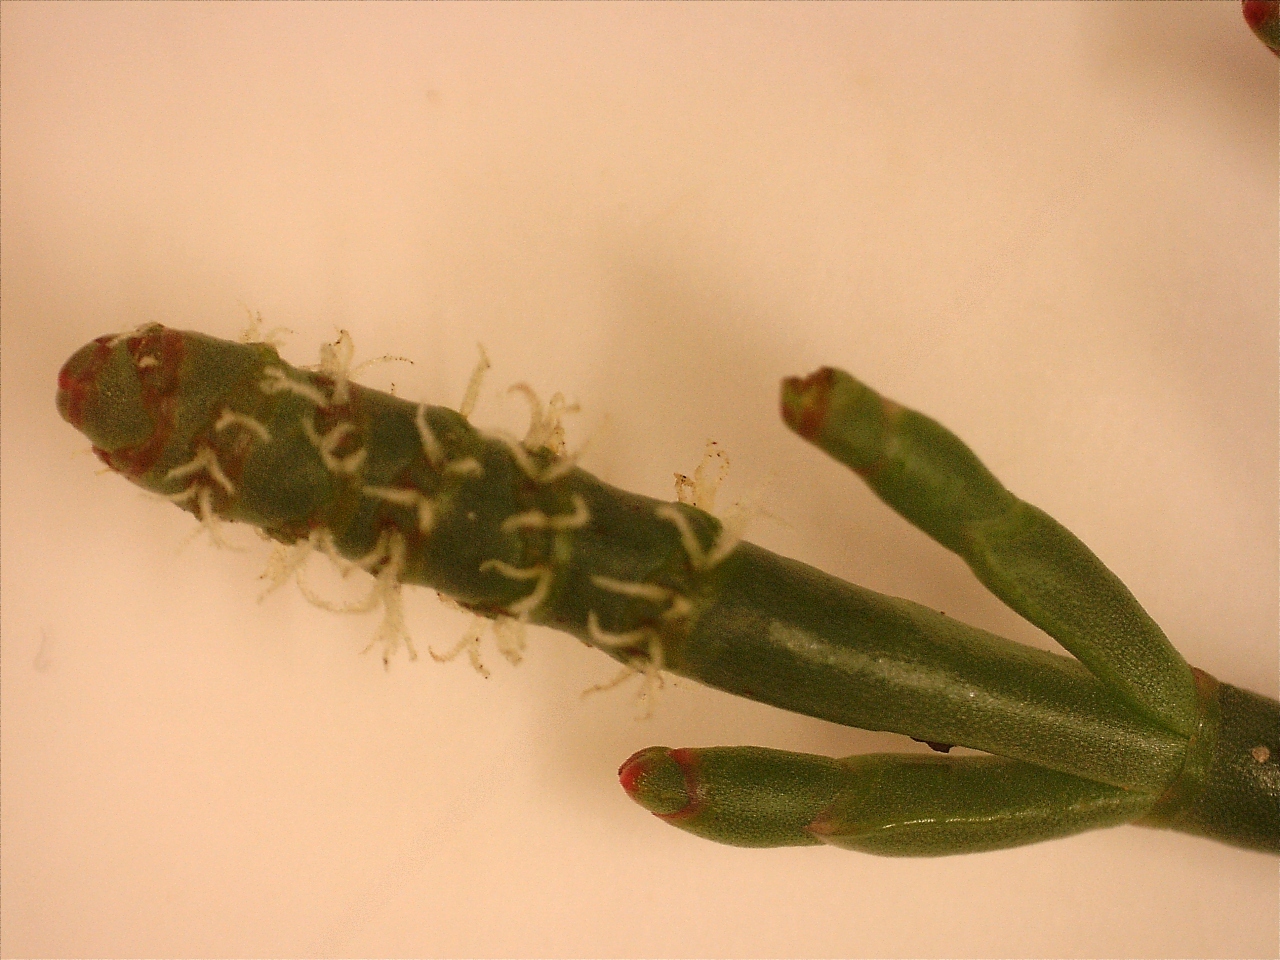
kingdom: Plantae
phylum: Tracheophyta
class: Magnoliopsida
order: Caryophyllales
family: Amaranthaceae
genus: Salicornia
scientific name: Salicornia quinqueflora
